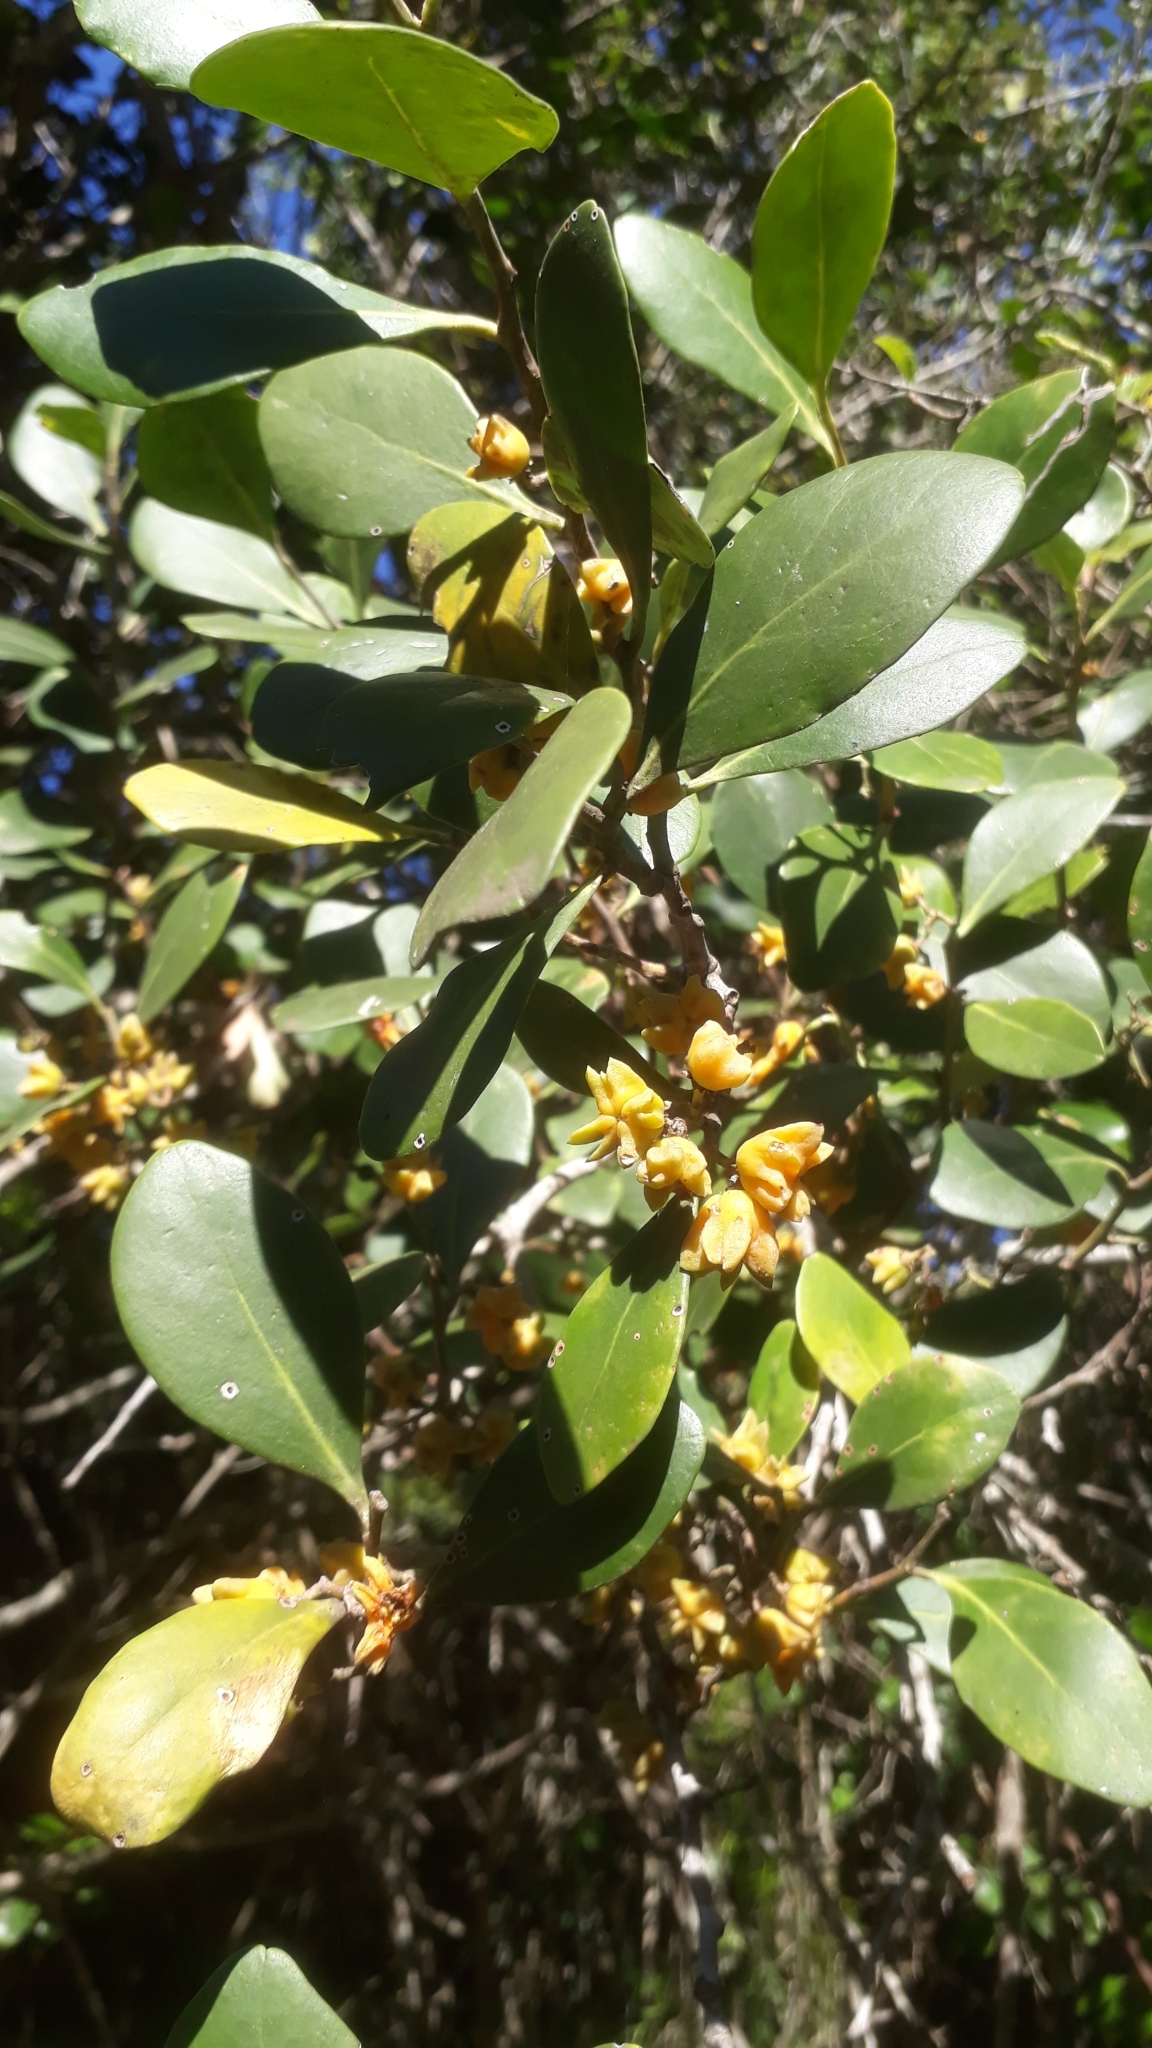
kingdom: Plantae
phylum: Tracheophyta
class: Magnoliopsida
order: Celastrales
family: Celastraceae
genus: Pterocelastrus
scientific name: Pterocelastrus tricuspidatus
